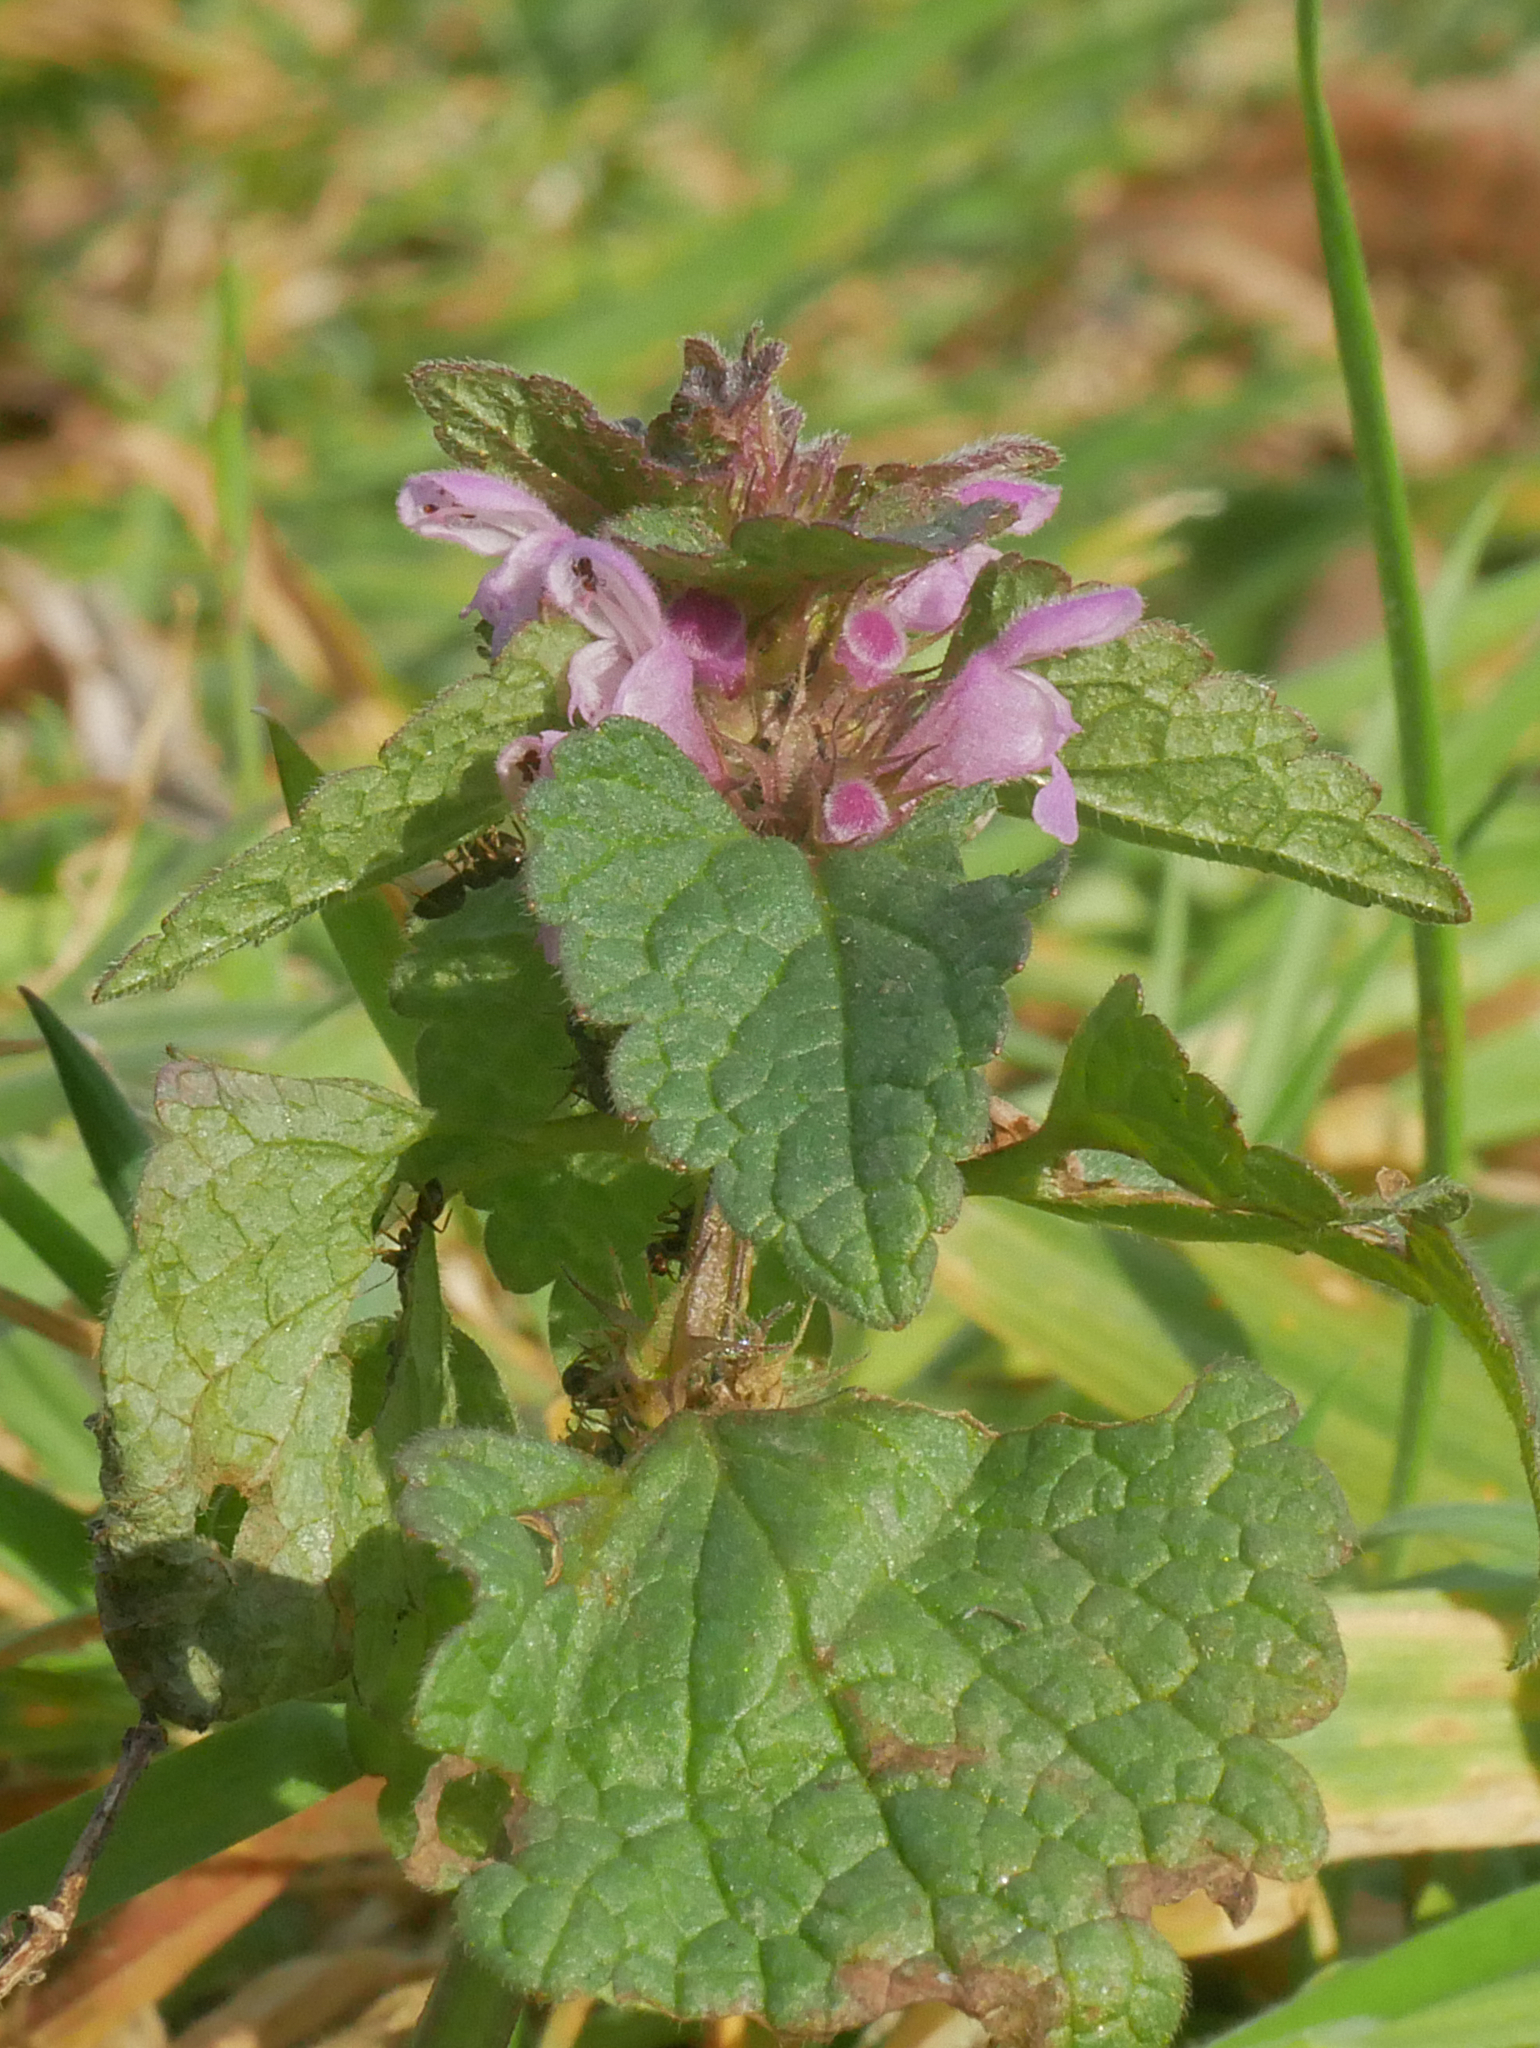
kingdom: Plantae
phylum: Tracheophyta
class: Magnoliopsida
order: Lamiales
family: Lamiaceae
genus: Lamium
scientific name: Lamium purpureum
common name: Red dead-nettle
